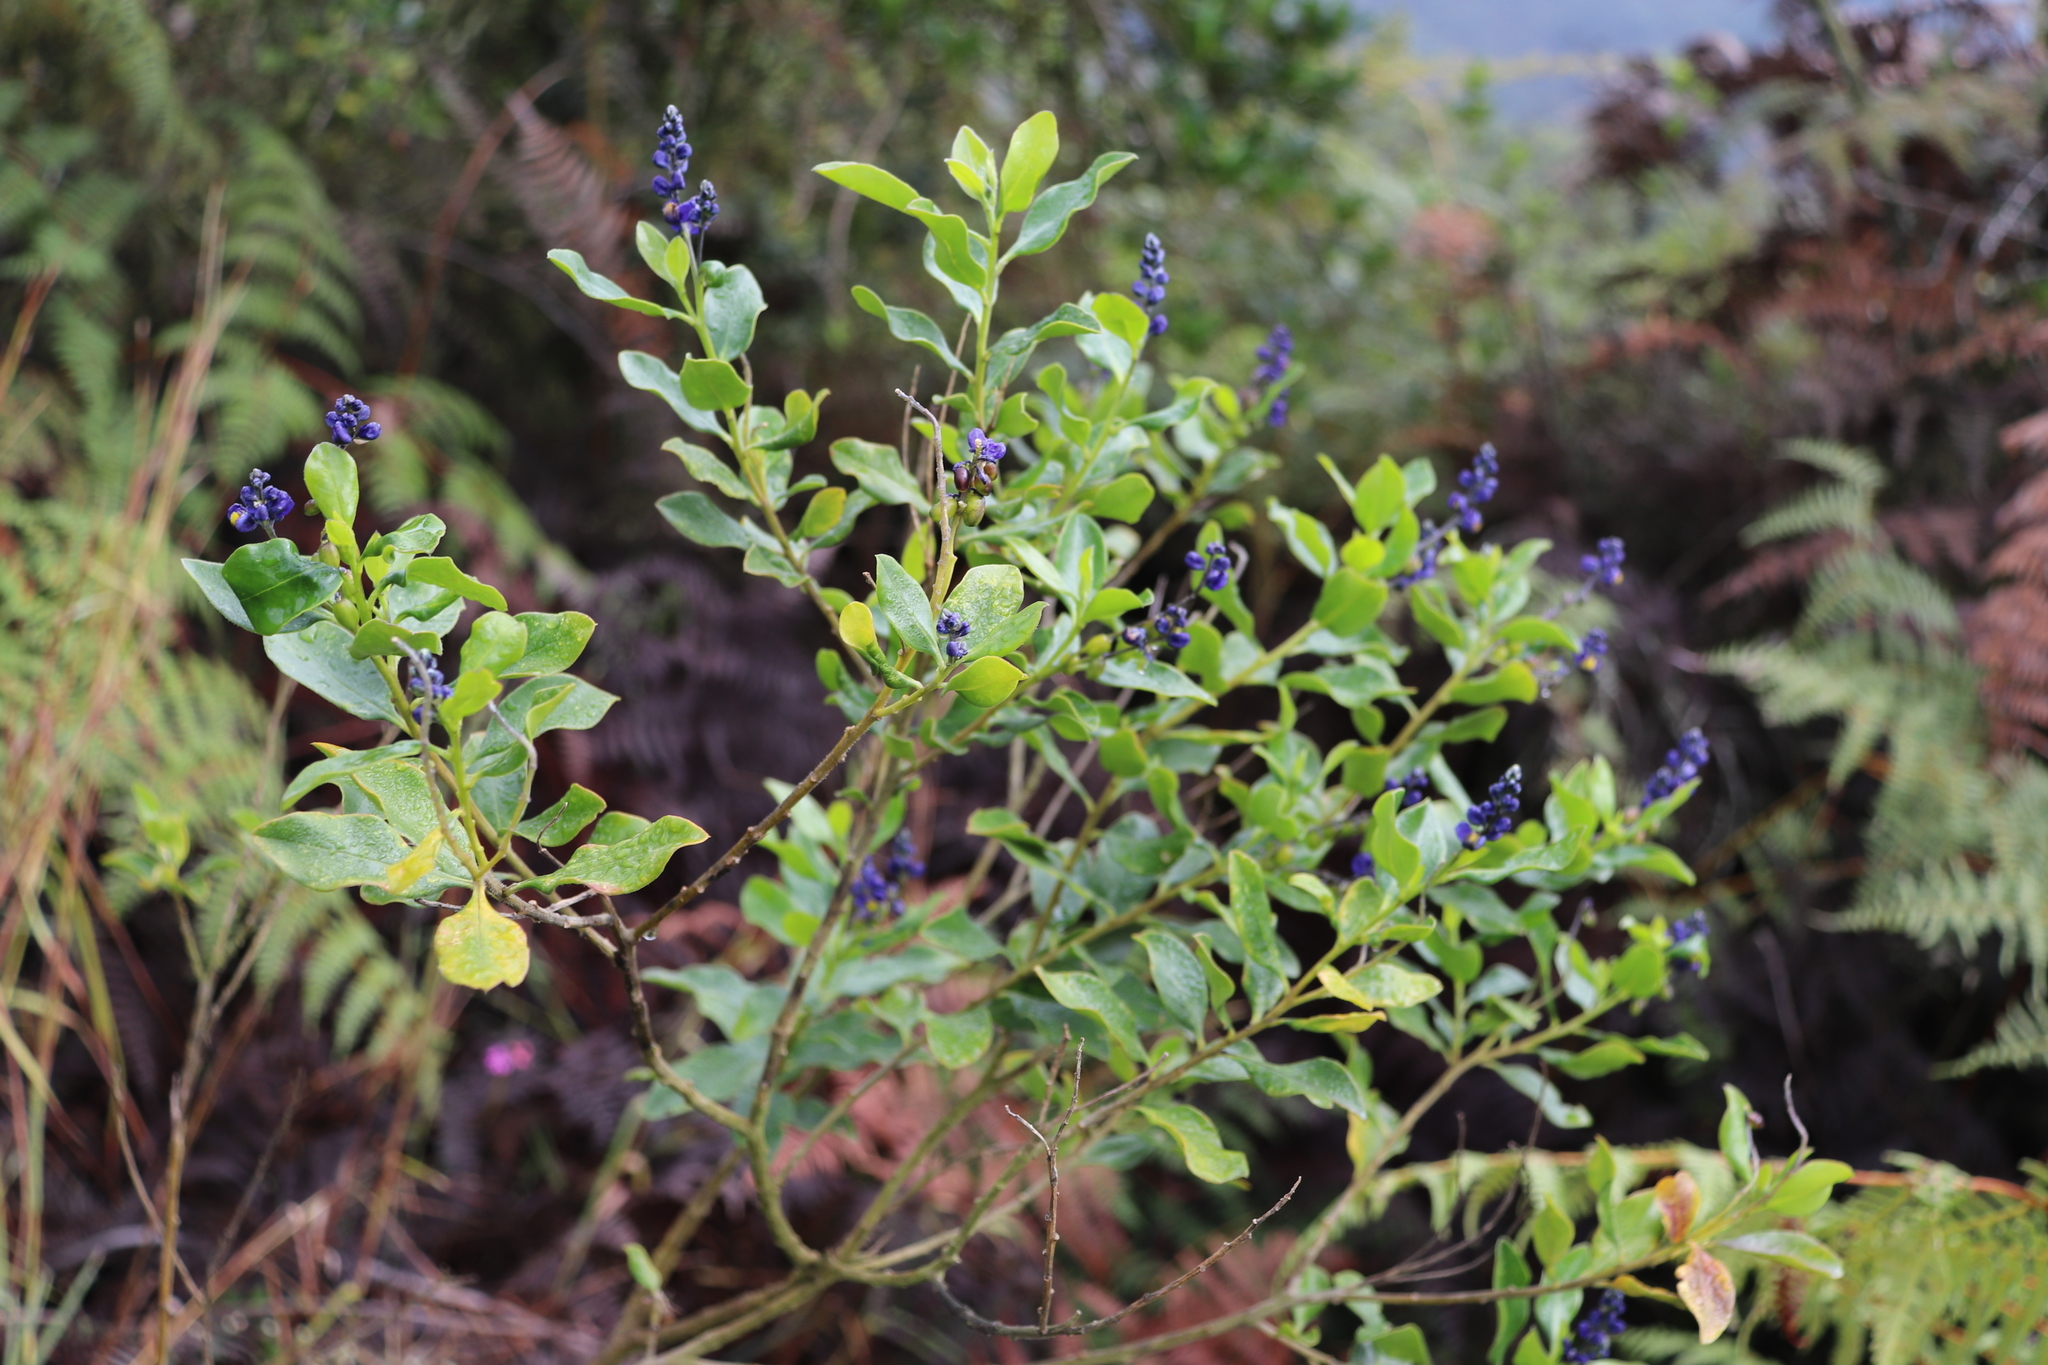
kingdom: Plantae
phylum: Tracheophyta
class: Magnoliopsida
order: Fabales
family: Polygalaceae
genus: Monnina
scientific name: Monnina aestuans
